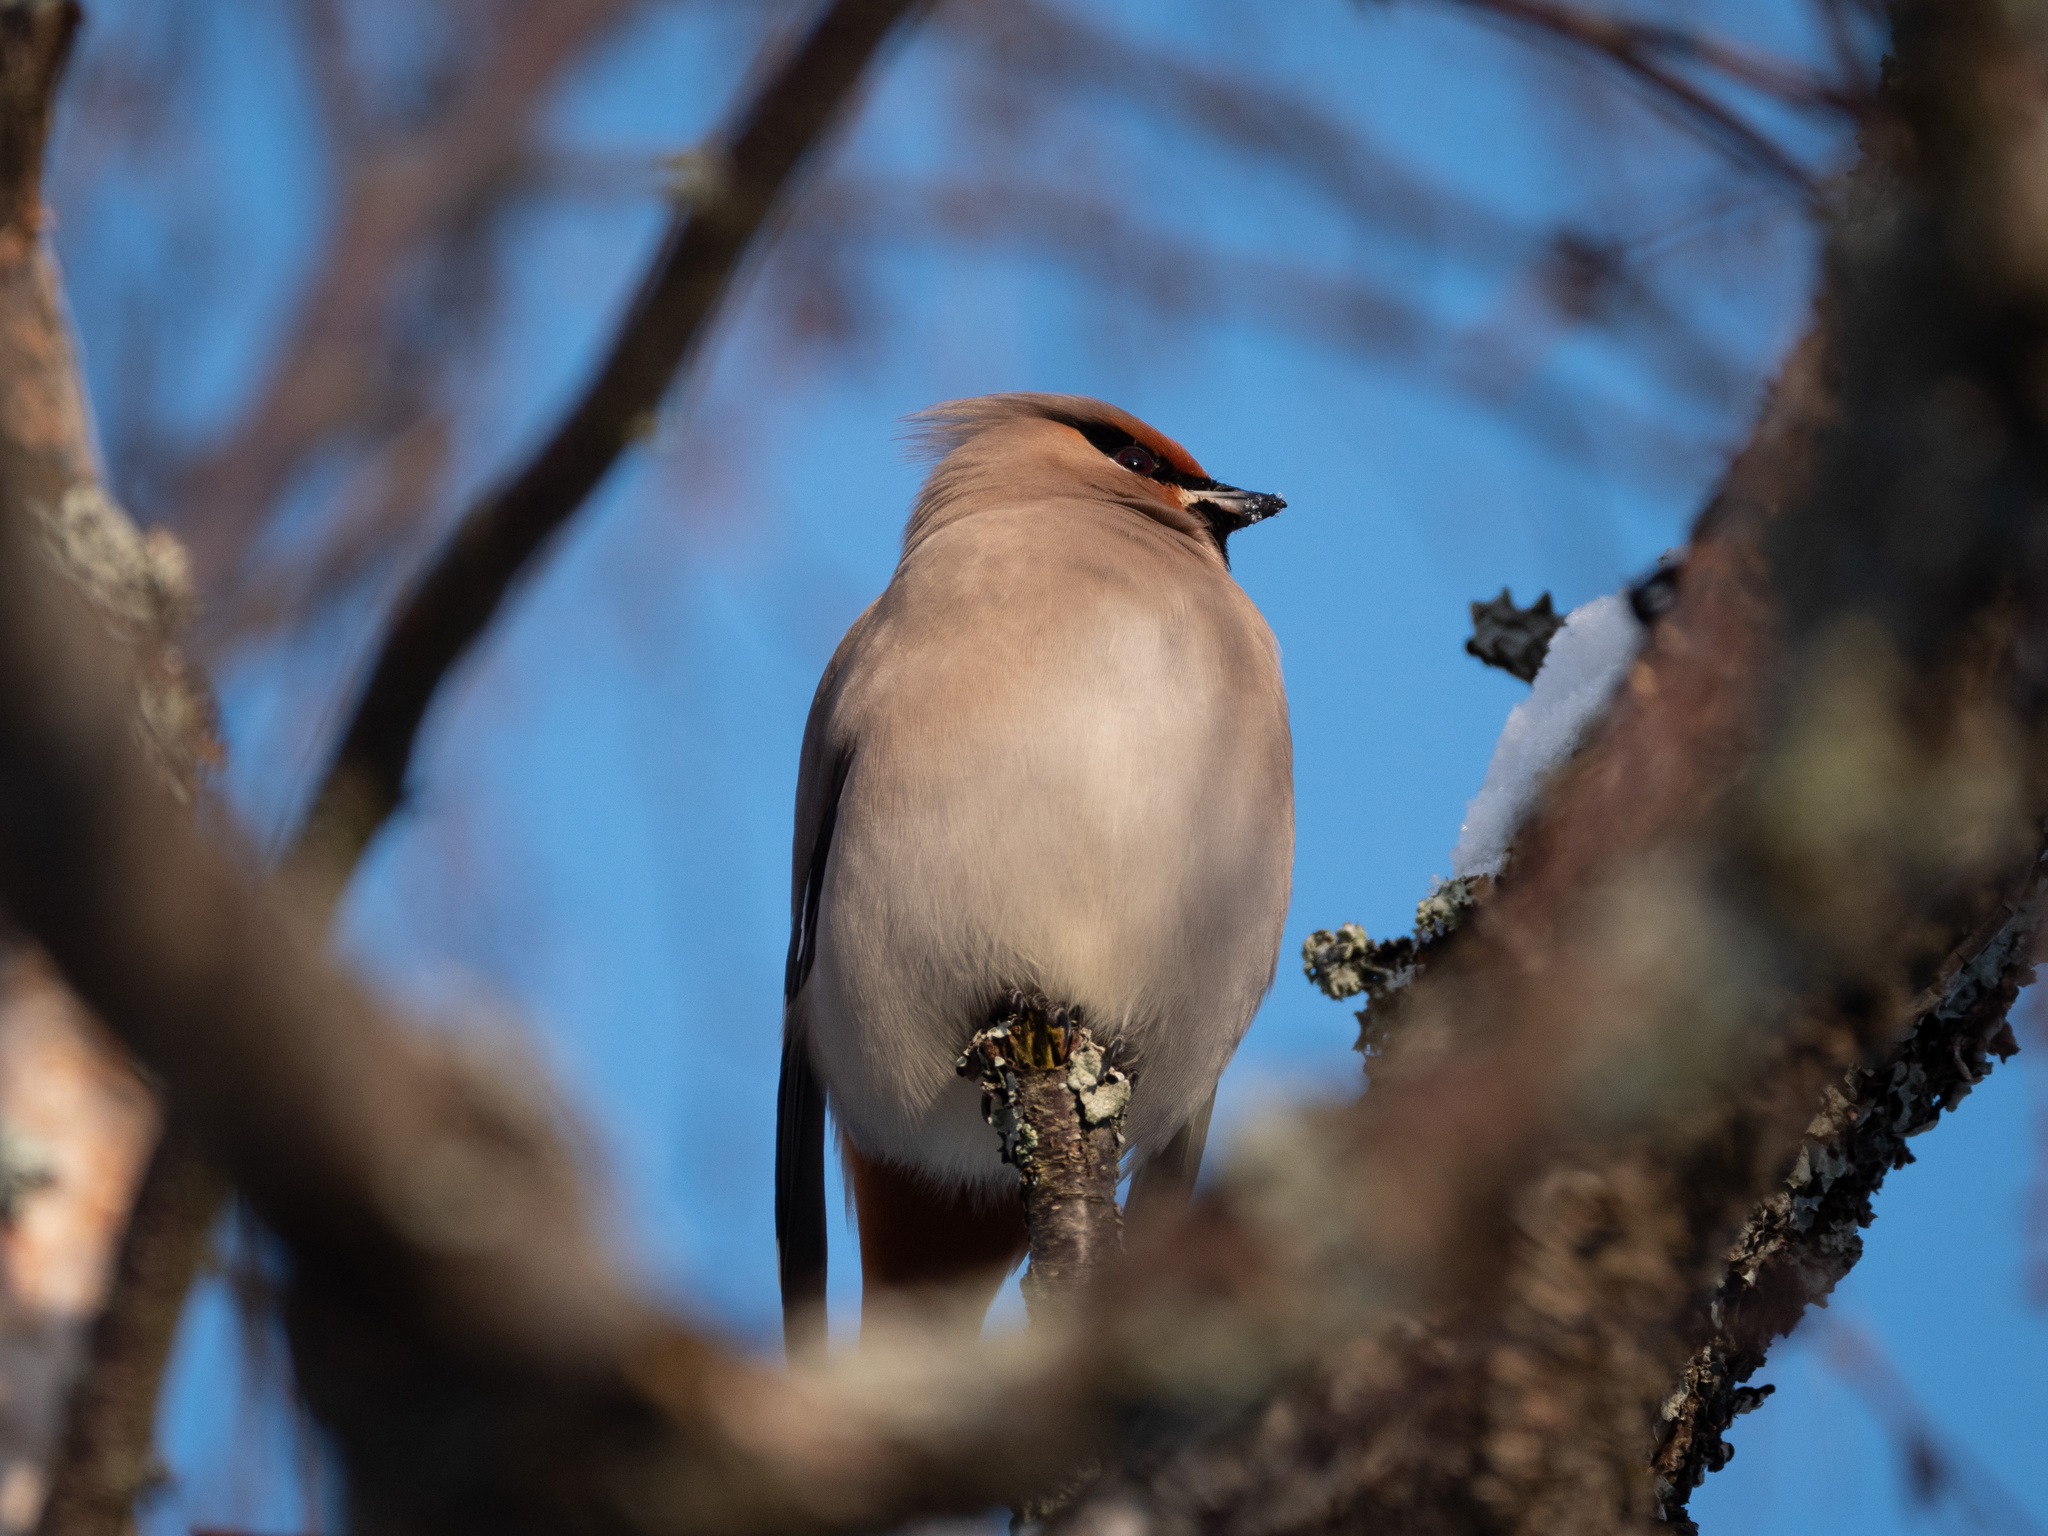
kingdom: Animalia
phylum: Chordata
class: Aves
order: Passeriformes
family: Bombycillidae
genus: Bombycilla
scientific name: Bombycilla garrulus
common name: Bohemian waxwing
